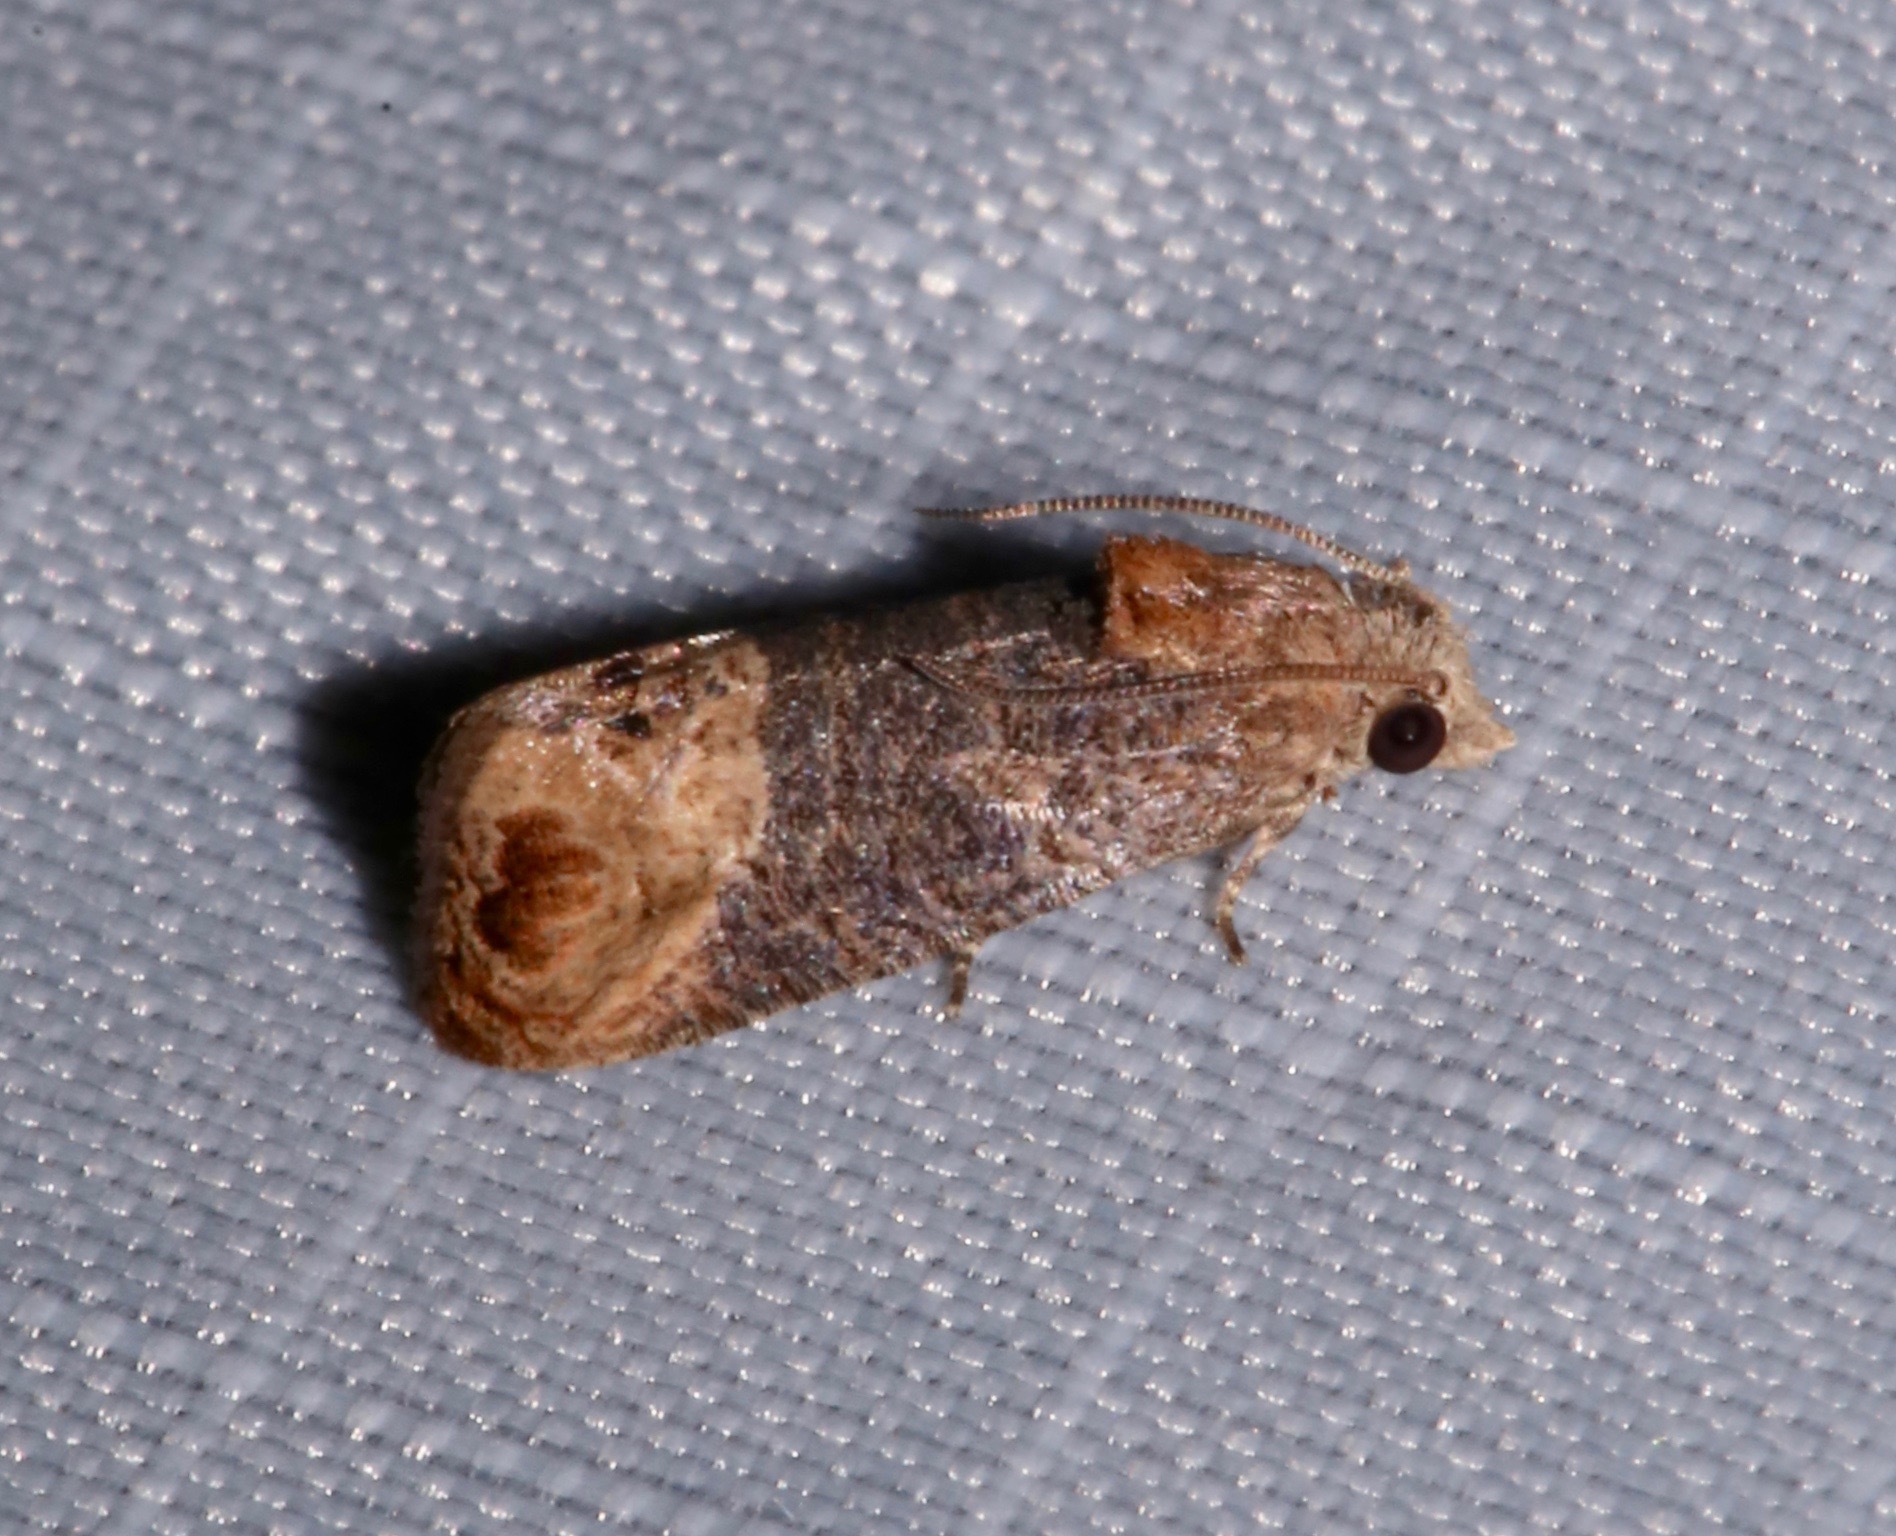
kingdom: Animalia
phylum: Arthropoda
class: Insecta
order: Lepidoptera
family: Tortricidae
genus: Paralobesia
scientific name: Paralobesia cyclopiana
